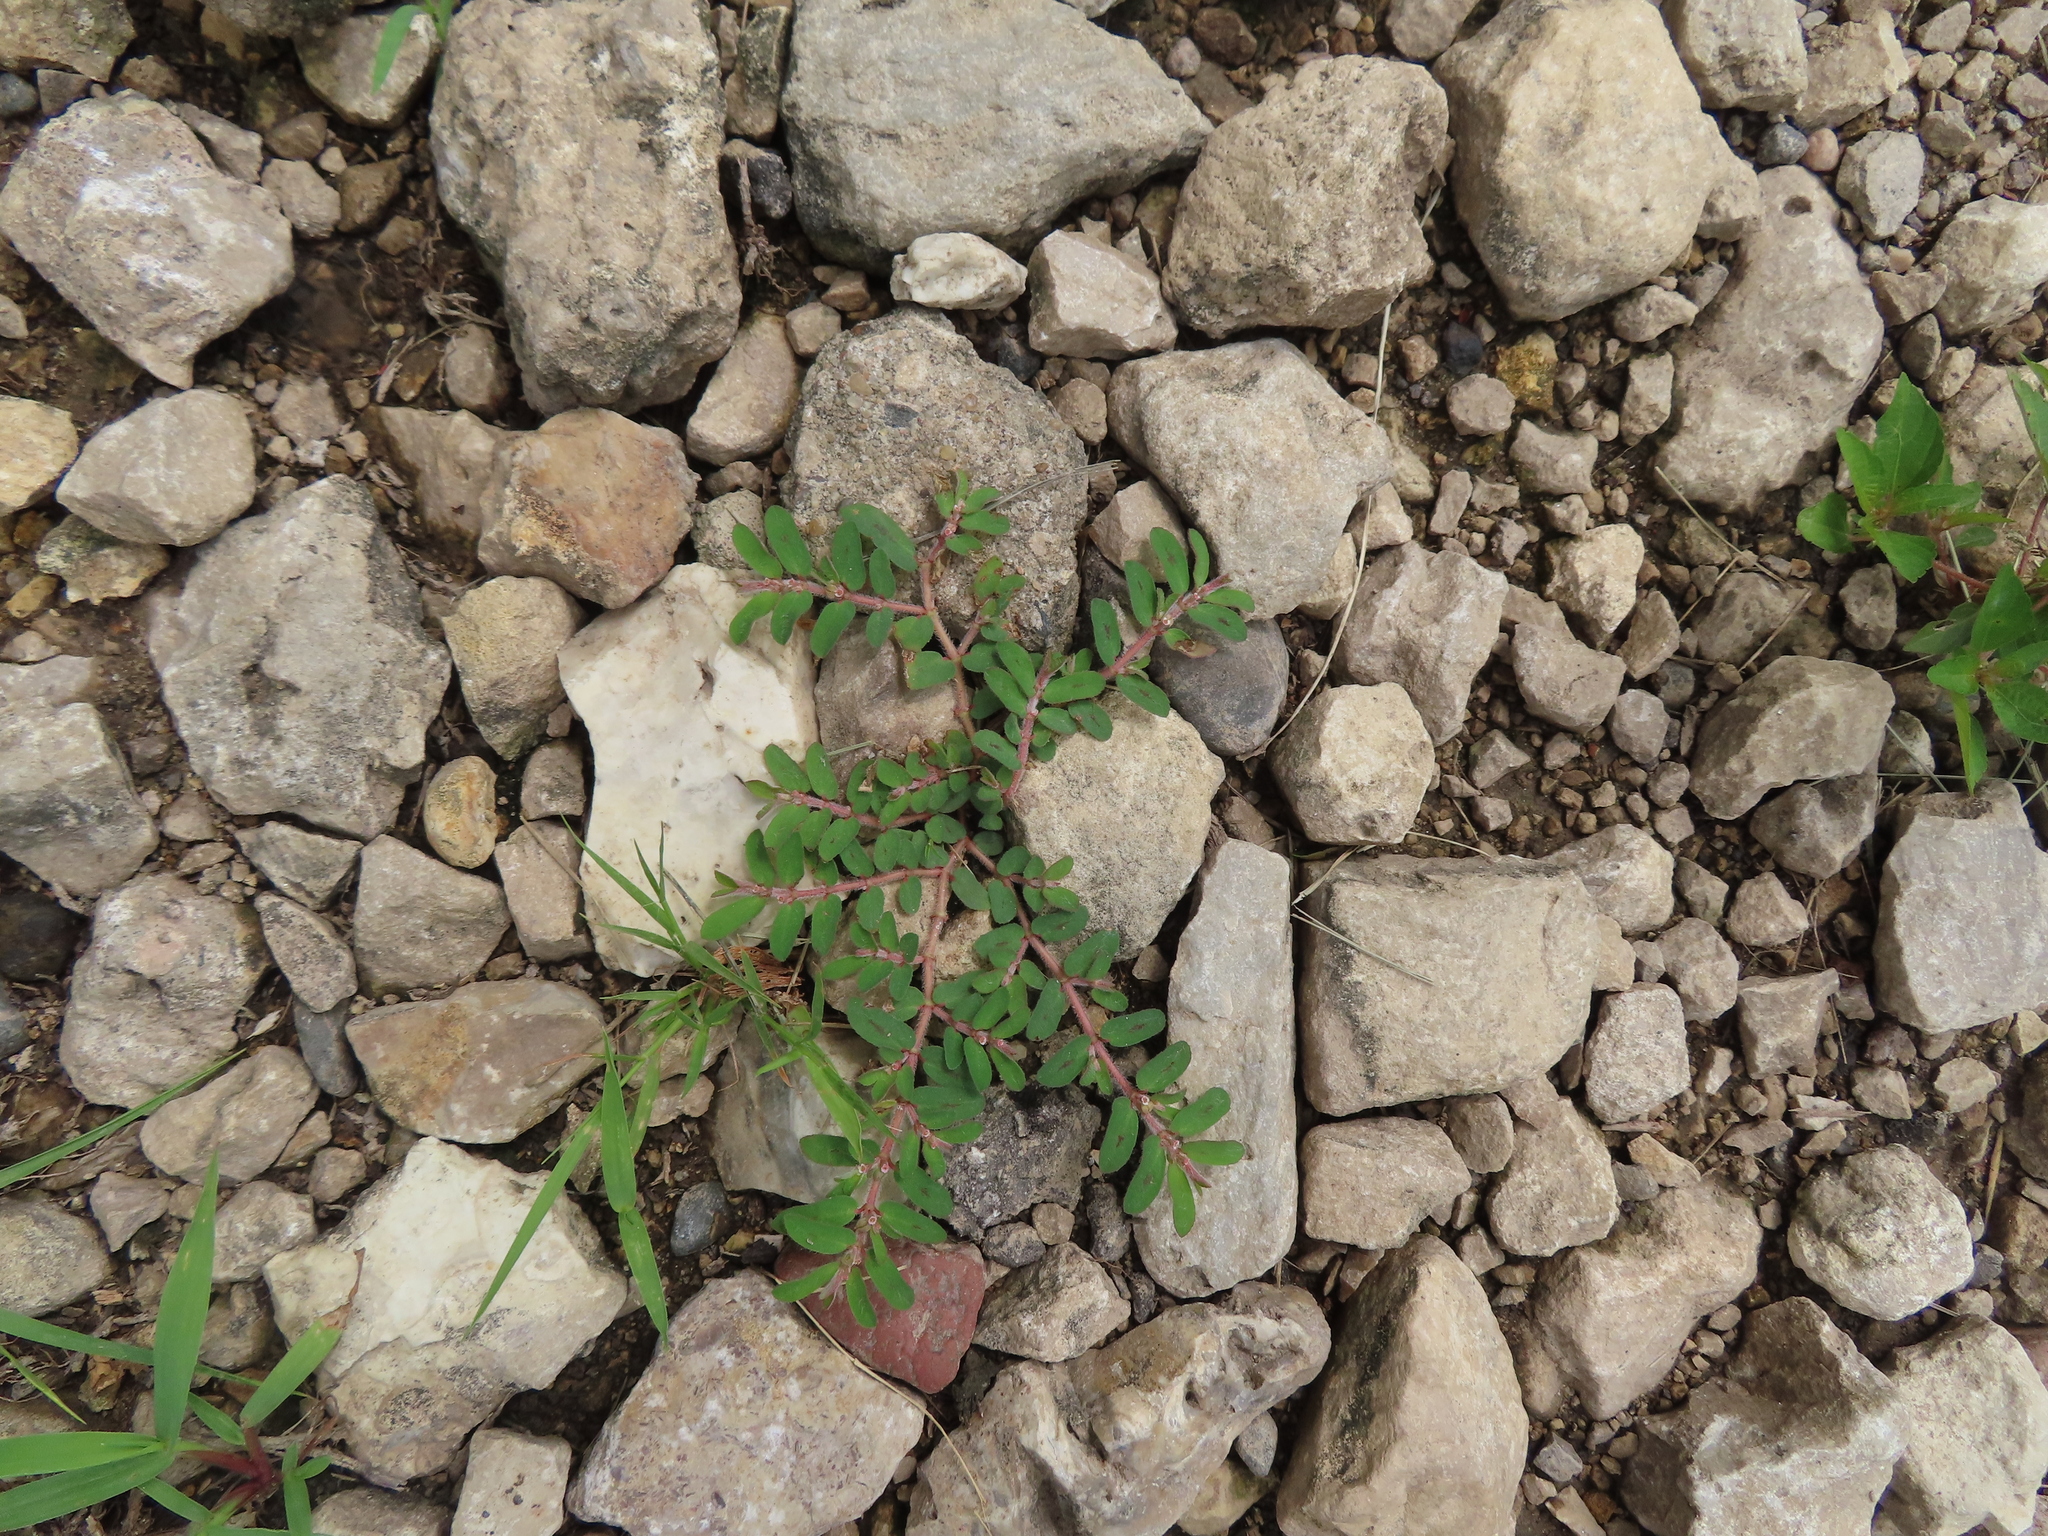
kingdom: Plantae
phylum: Tracheophyta
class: Magnoliopsida
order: Malpighiales
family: Euphorbiaceae
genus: Euphorbia
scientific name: Euphorbia maculata
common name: Spotted spurge
